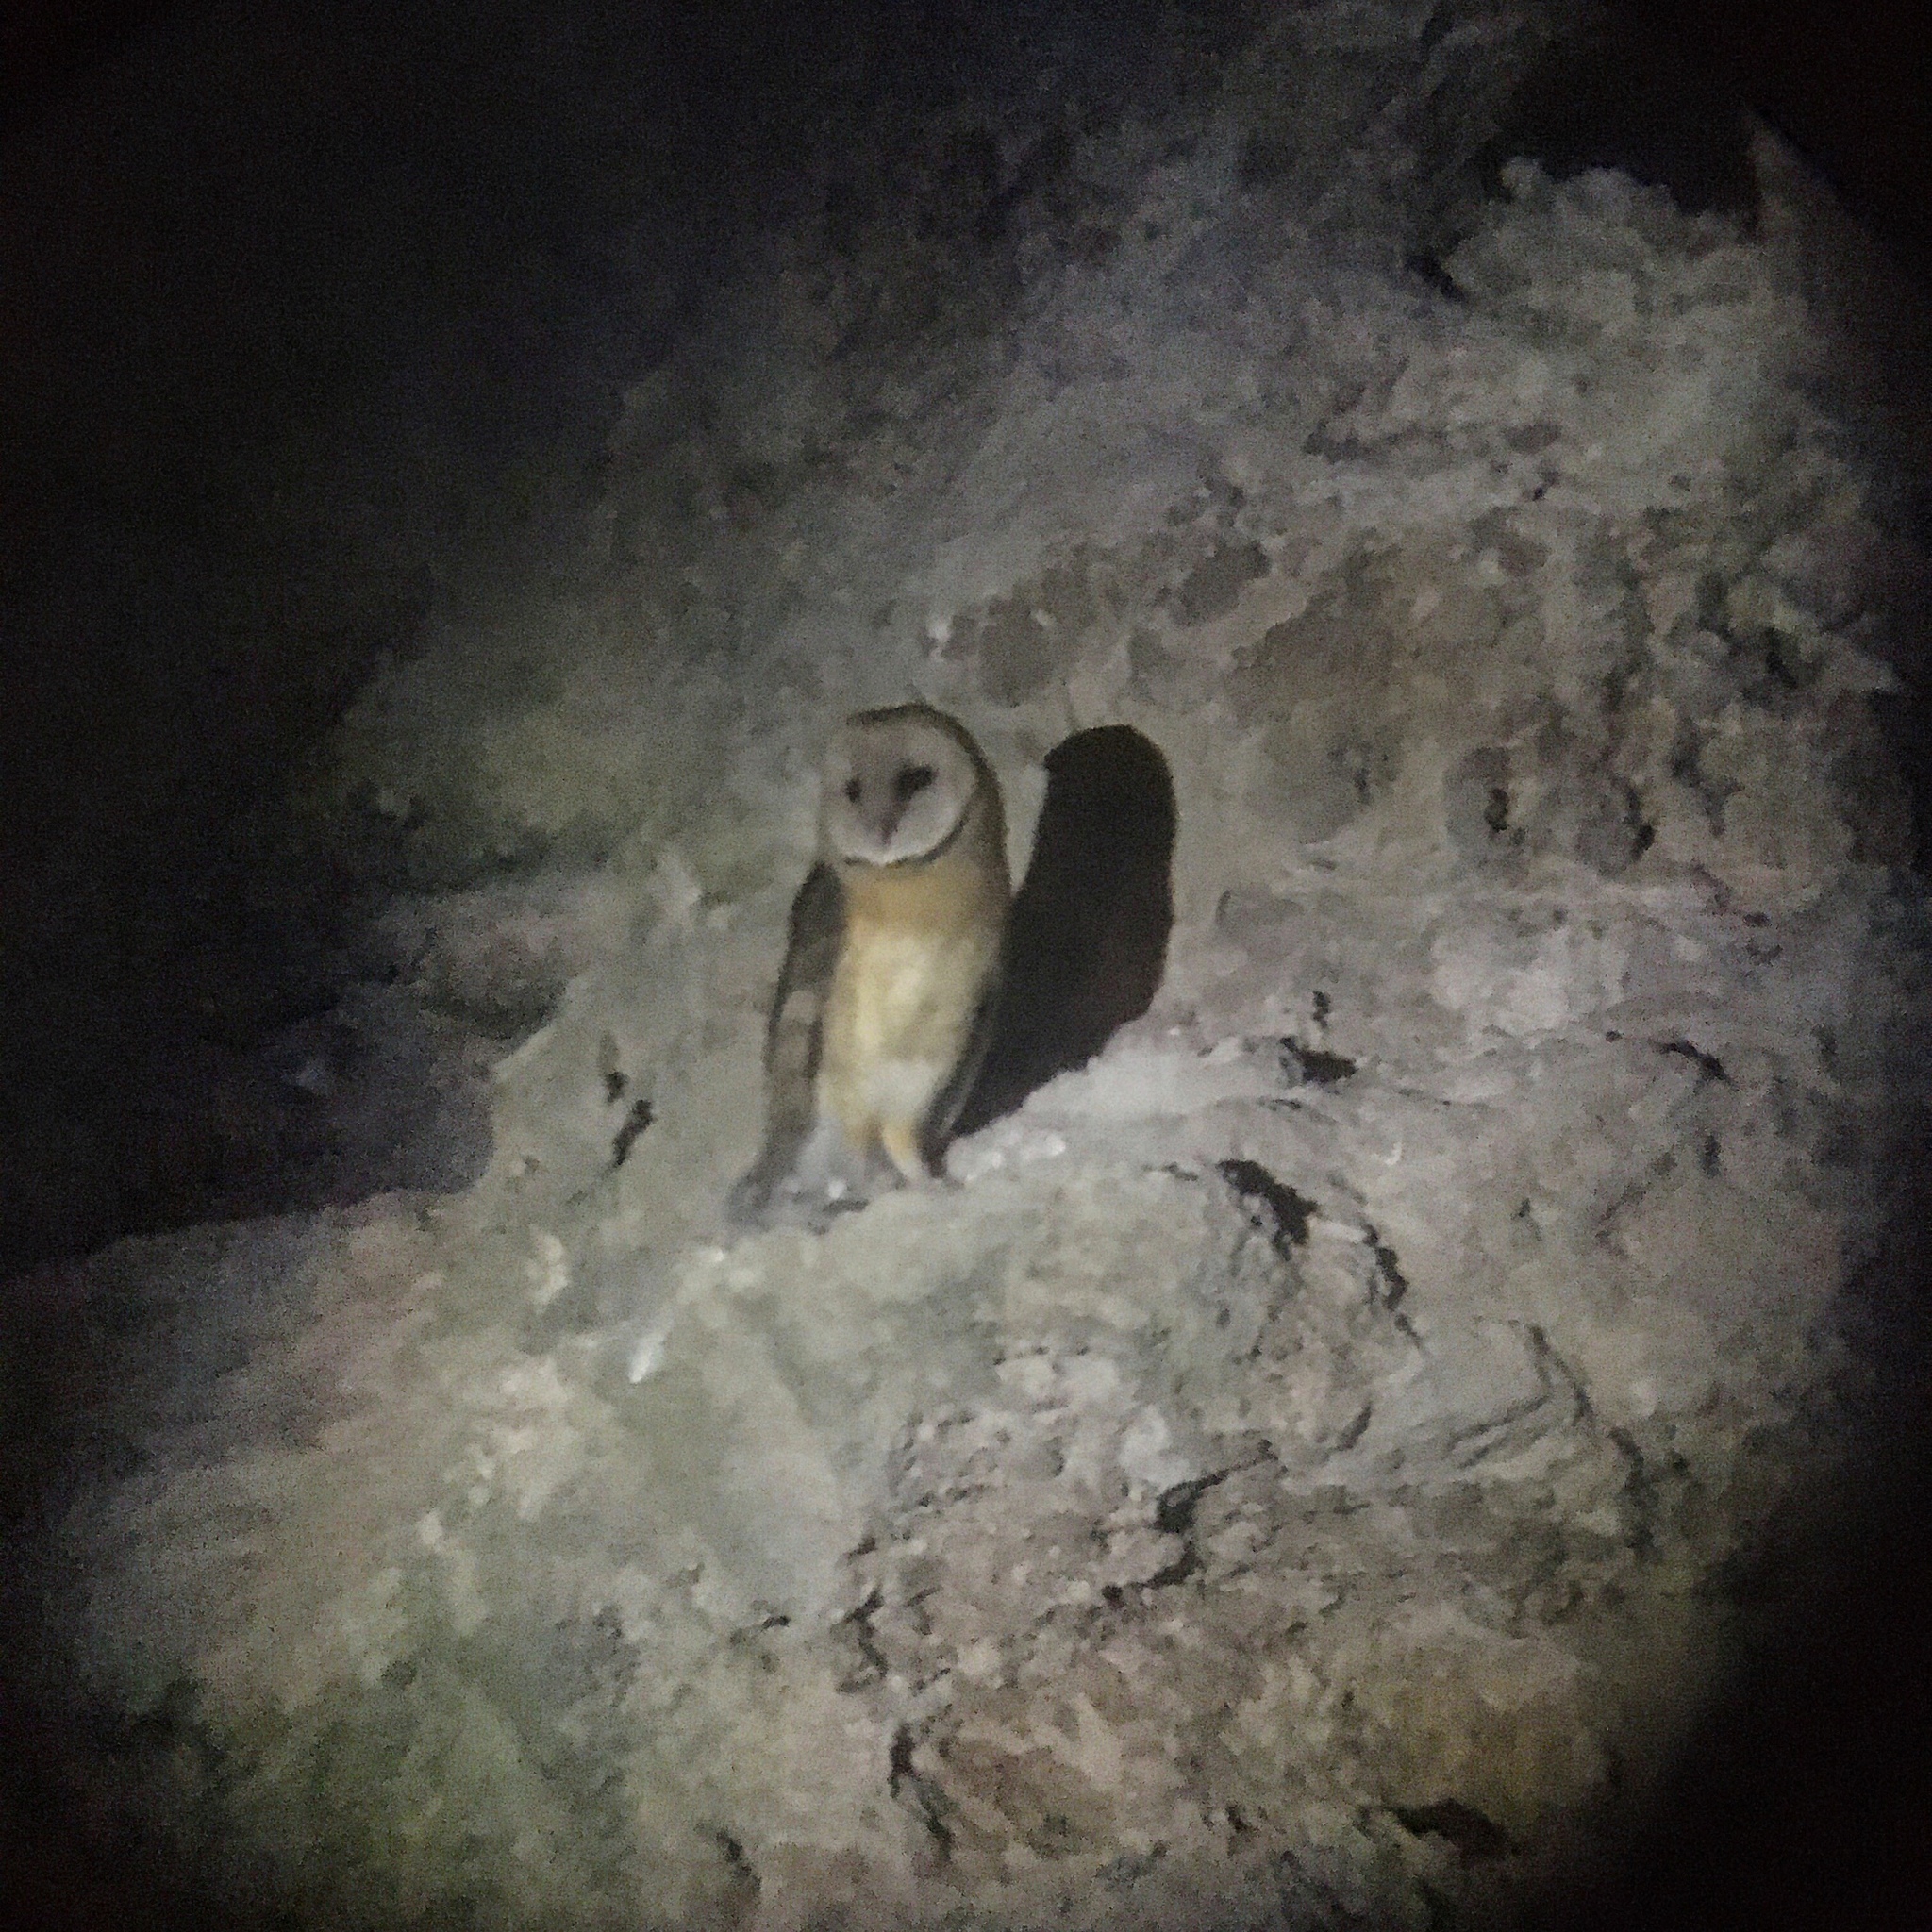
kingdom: Animalia
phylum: Chordata
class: Aves
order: Strigiformes
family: Tytonidae
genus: Tyto
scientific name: Tyto alba
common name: Barn owl
